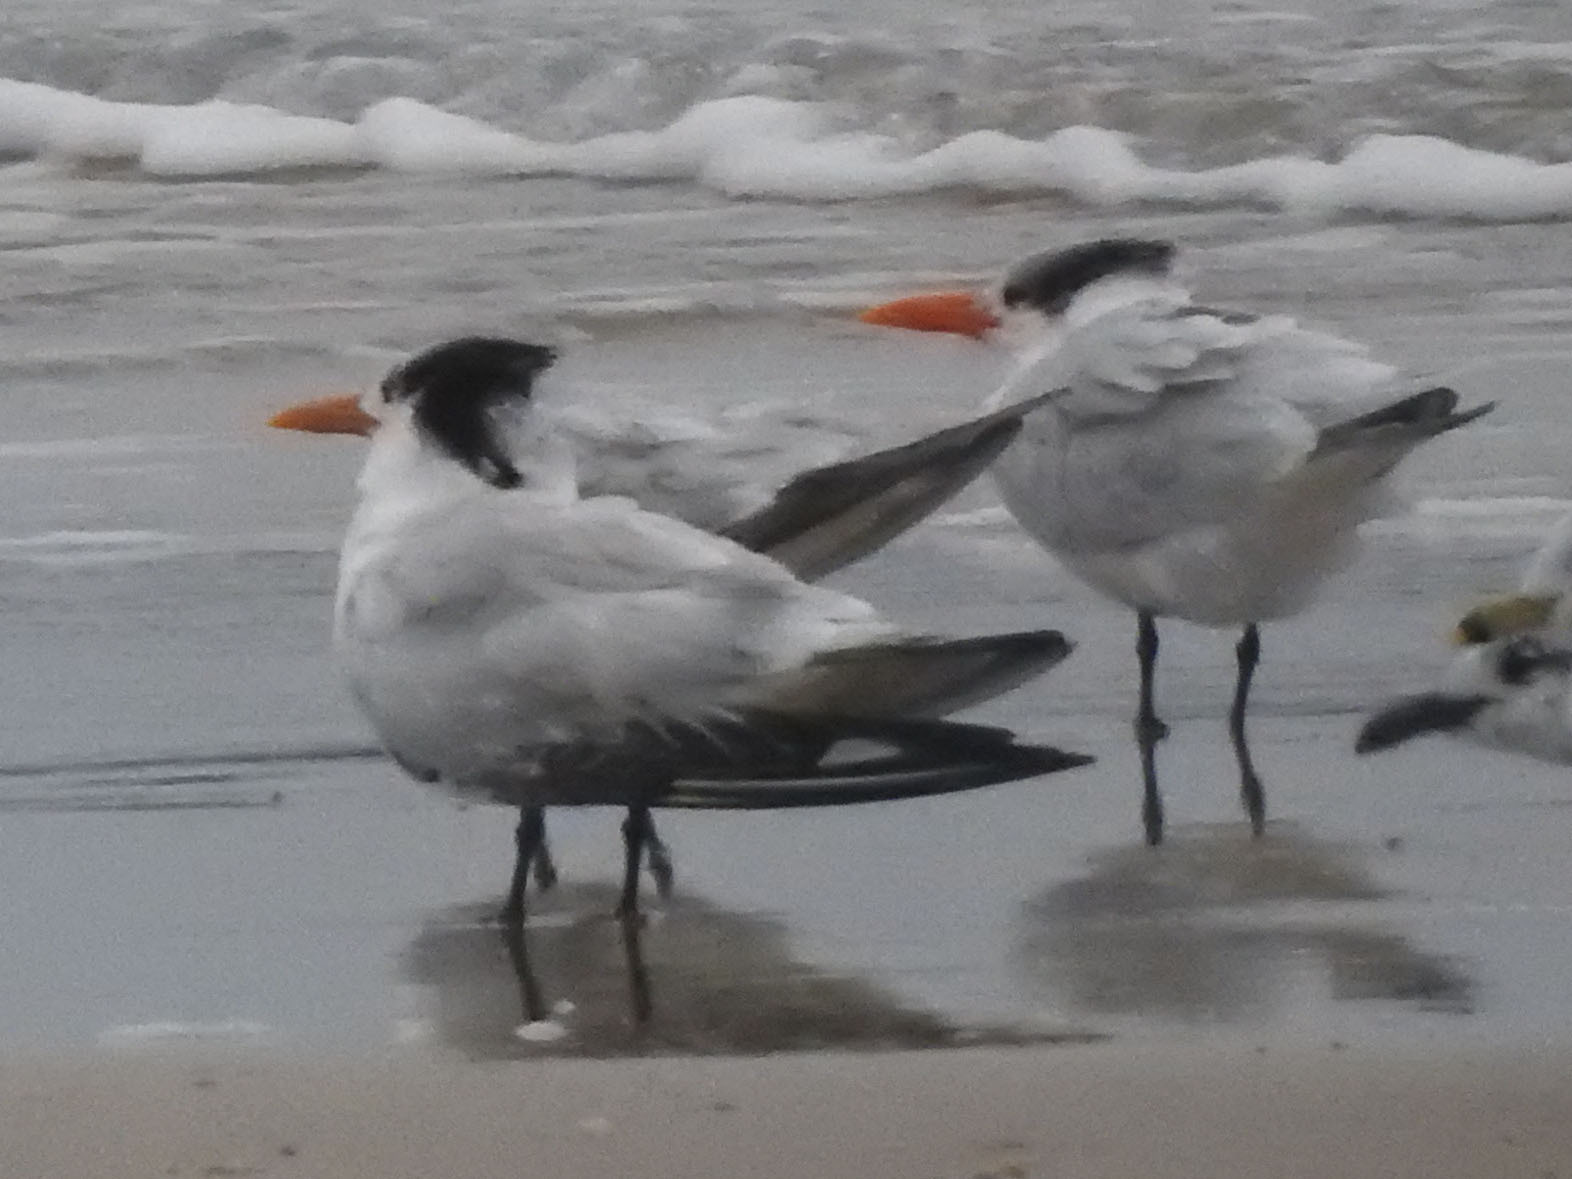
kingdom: Animalia
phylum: Chordata
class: Aves
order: Charadriiformes
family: Laridae
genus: Thalasseus
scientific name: Thalasseus maximus
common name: Royal tern
